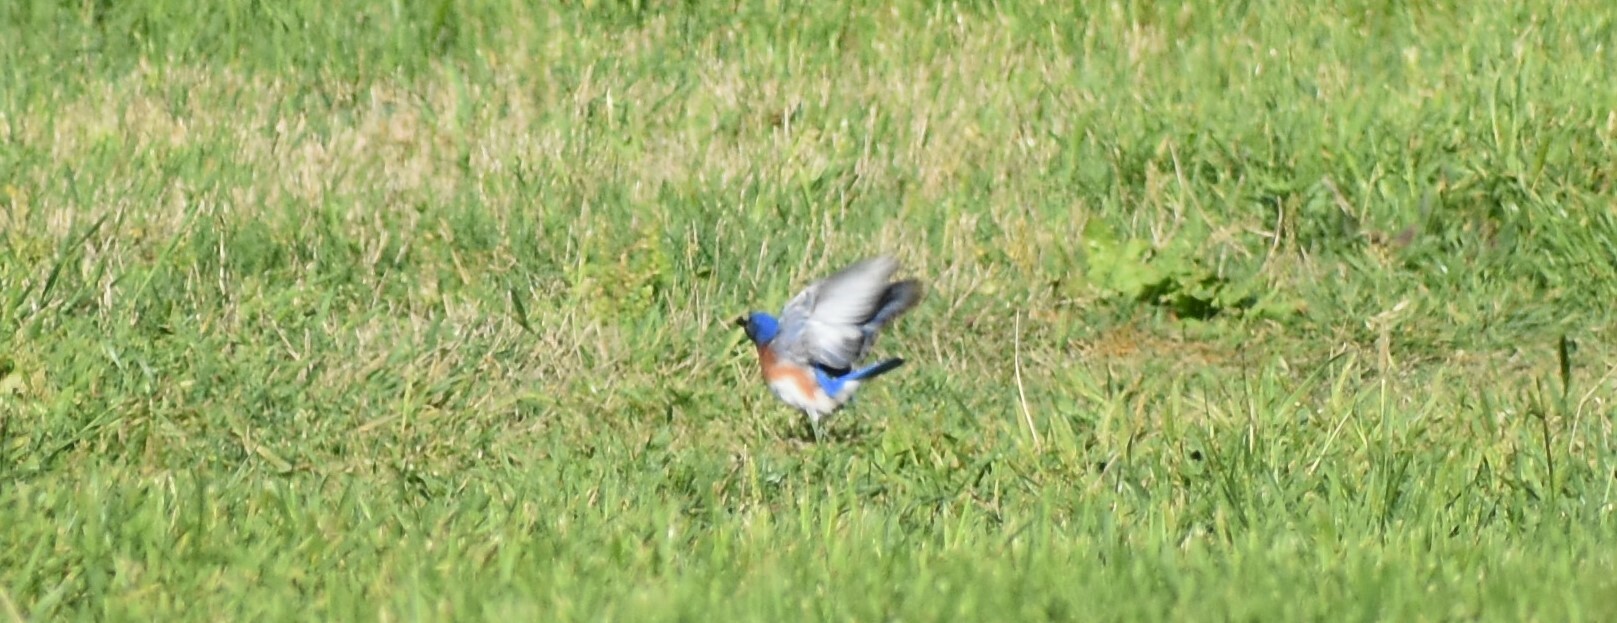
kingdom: Animalia
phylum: Chordata
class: Aves
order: Passeriformes
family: Turdidae
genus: Sialia
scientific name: Sialia sialis
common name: Eastern bluebird
